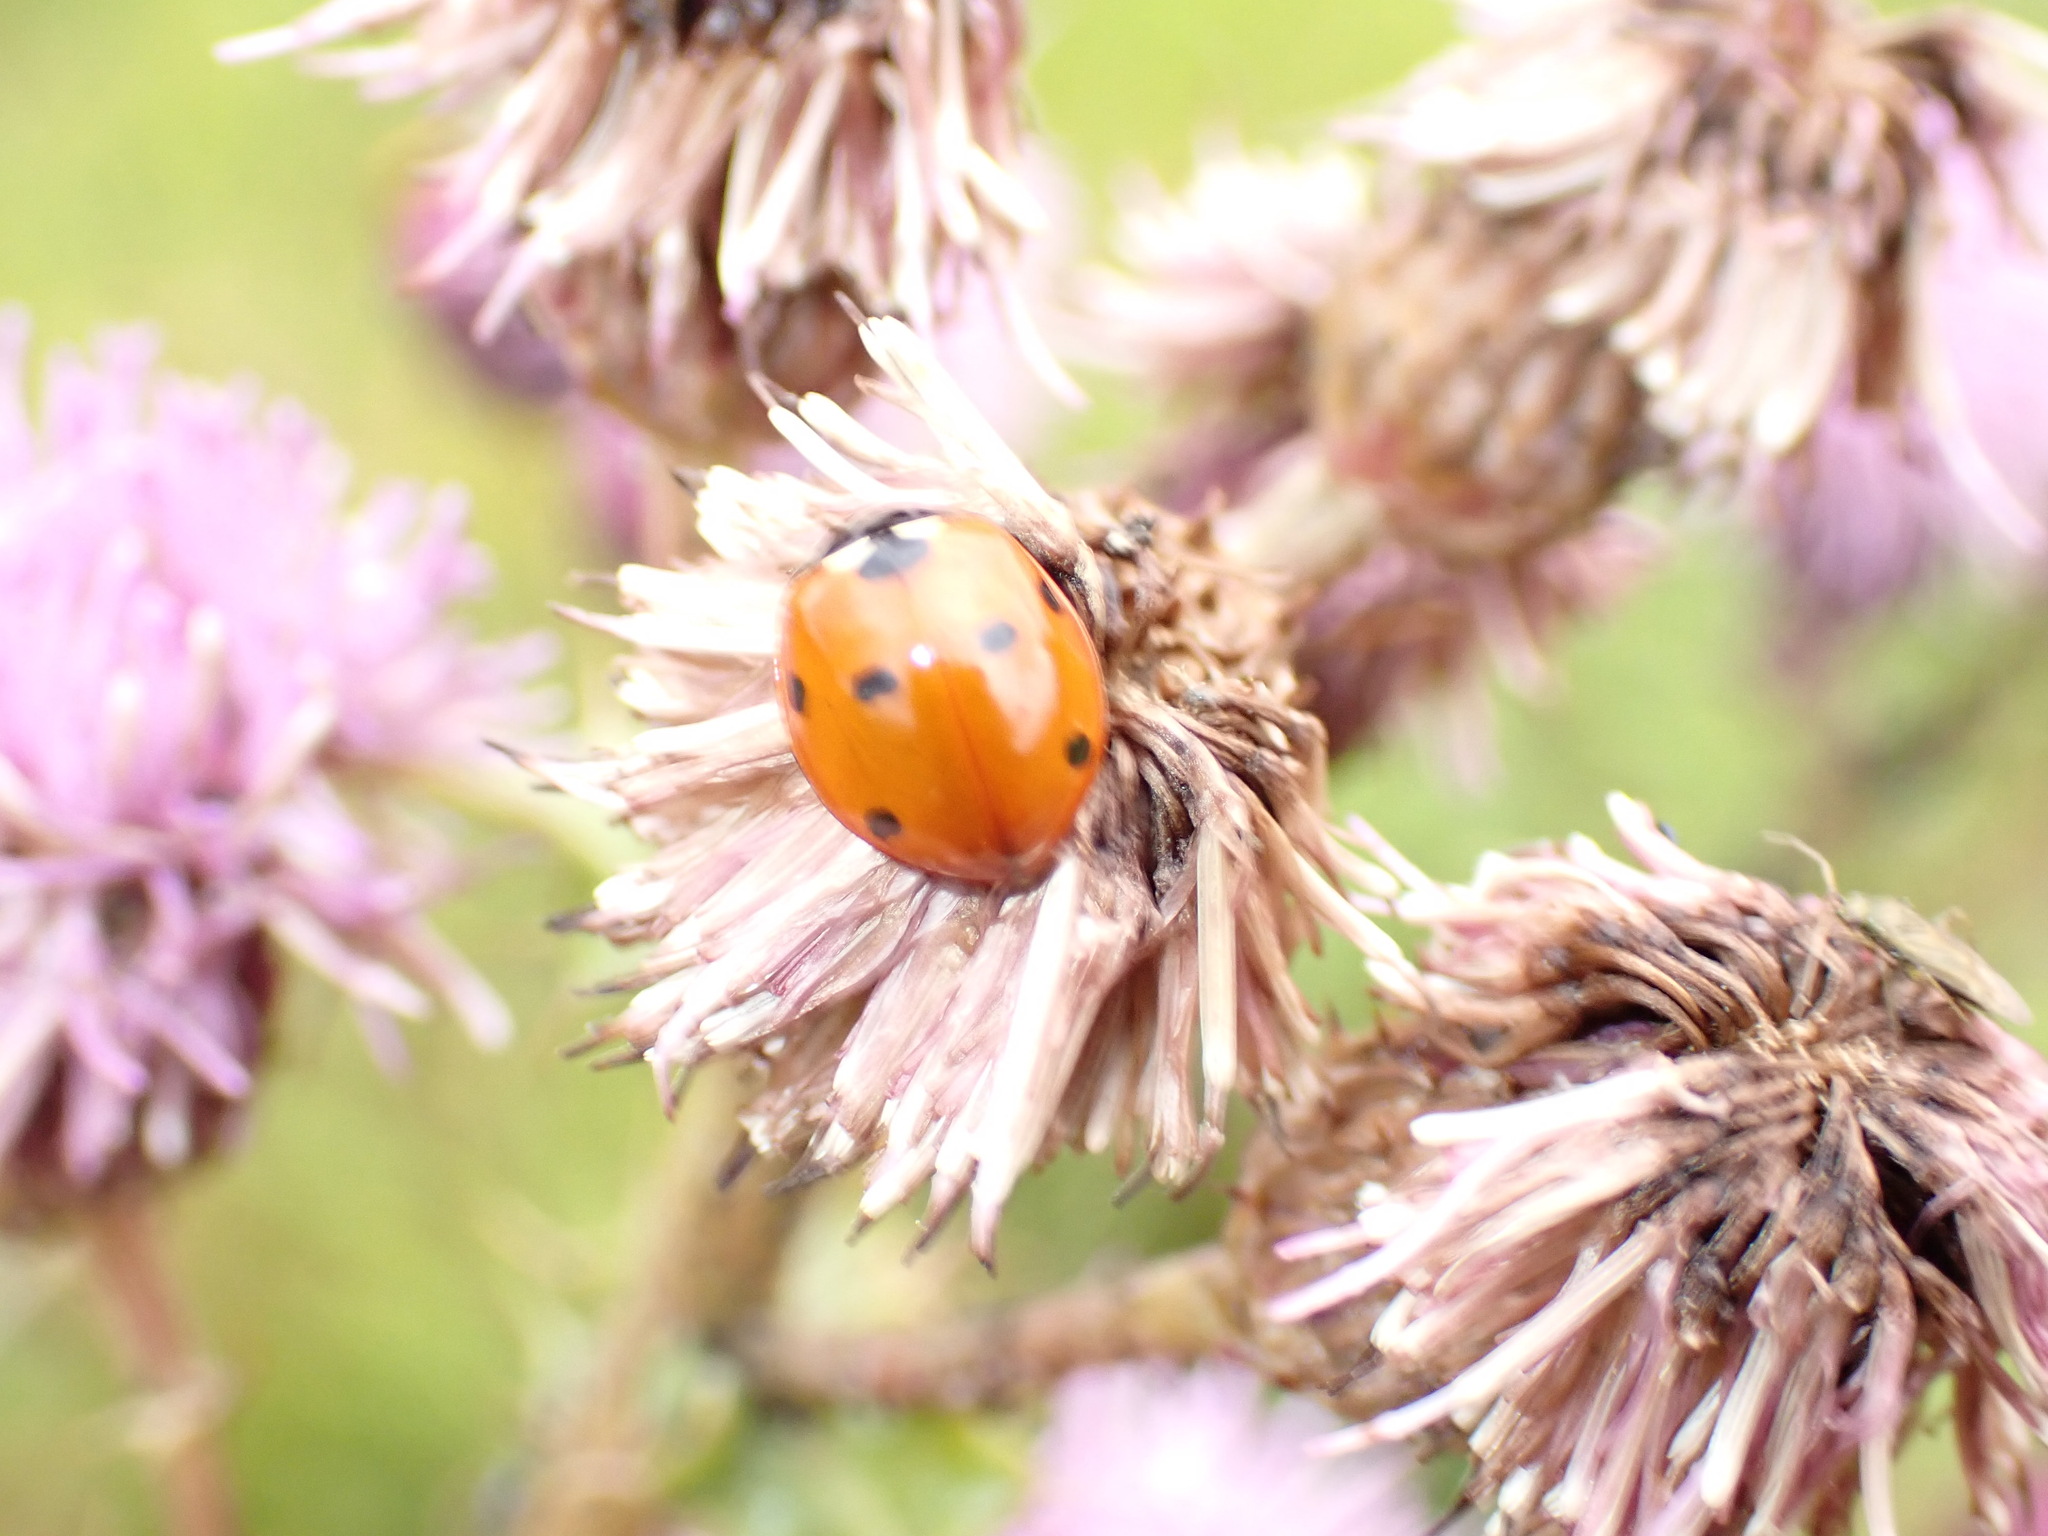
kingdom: Animalia
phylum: Arthropoda
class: Insecta
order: Coleoptera
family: Coccinellidae
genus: Coccinella
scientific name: Coccinella septempunctata
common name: Sevenspotted lady beetle
